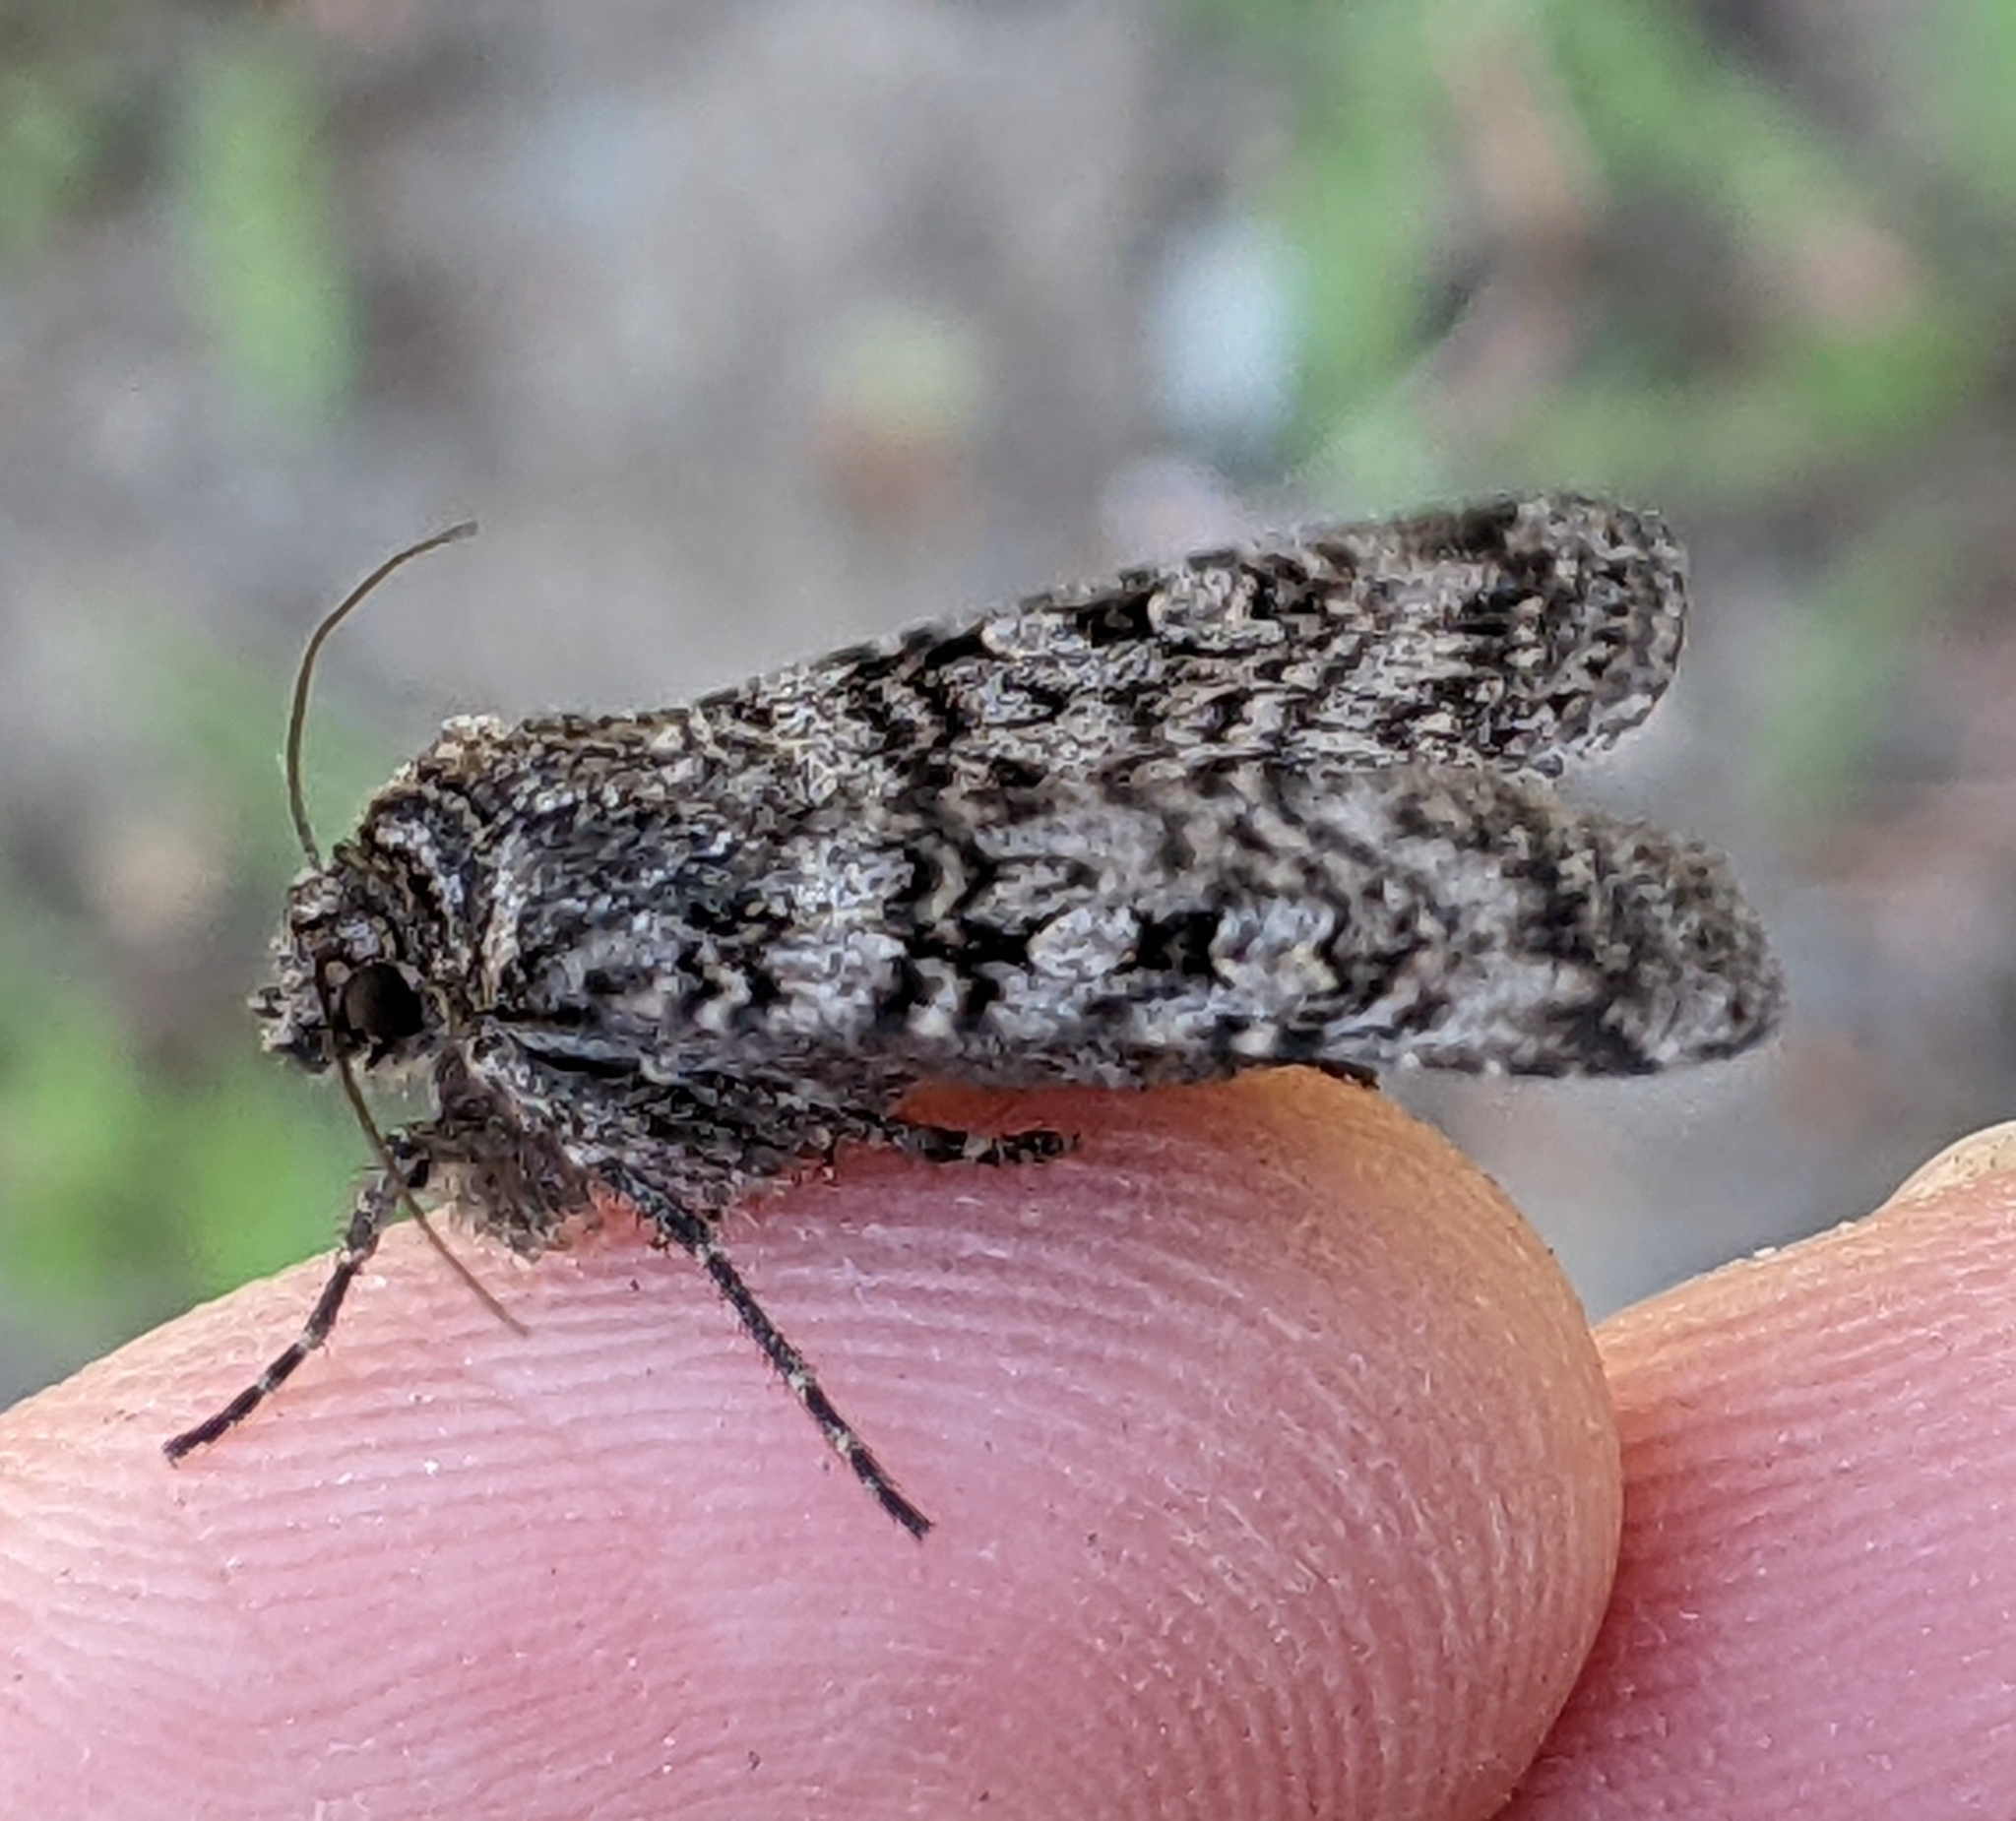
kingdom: Animalia
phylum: Arthropoda
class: Insecta
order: Lepidoptera
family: Noctuidae
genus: Euxoa
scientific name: Euxoa terrenus
